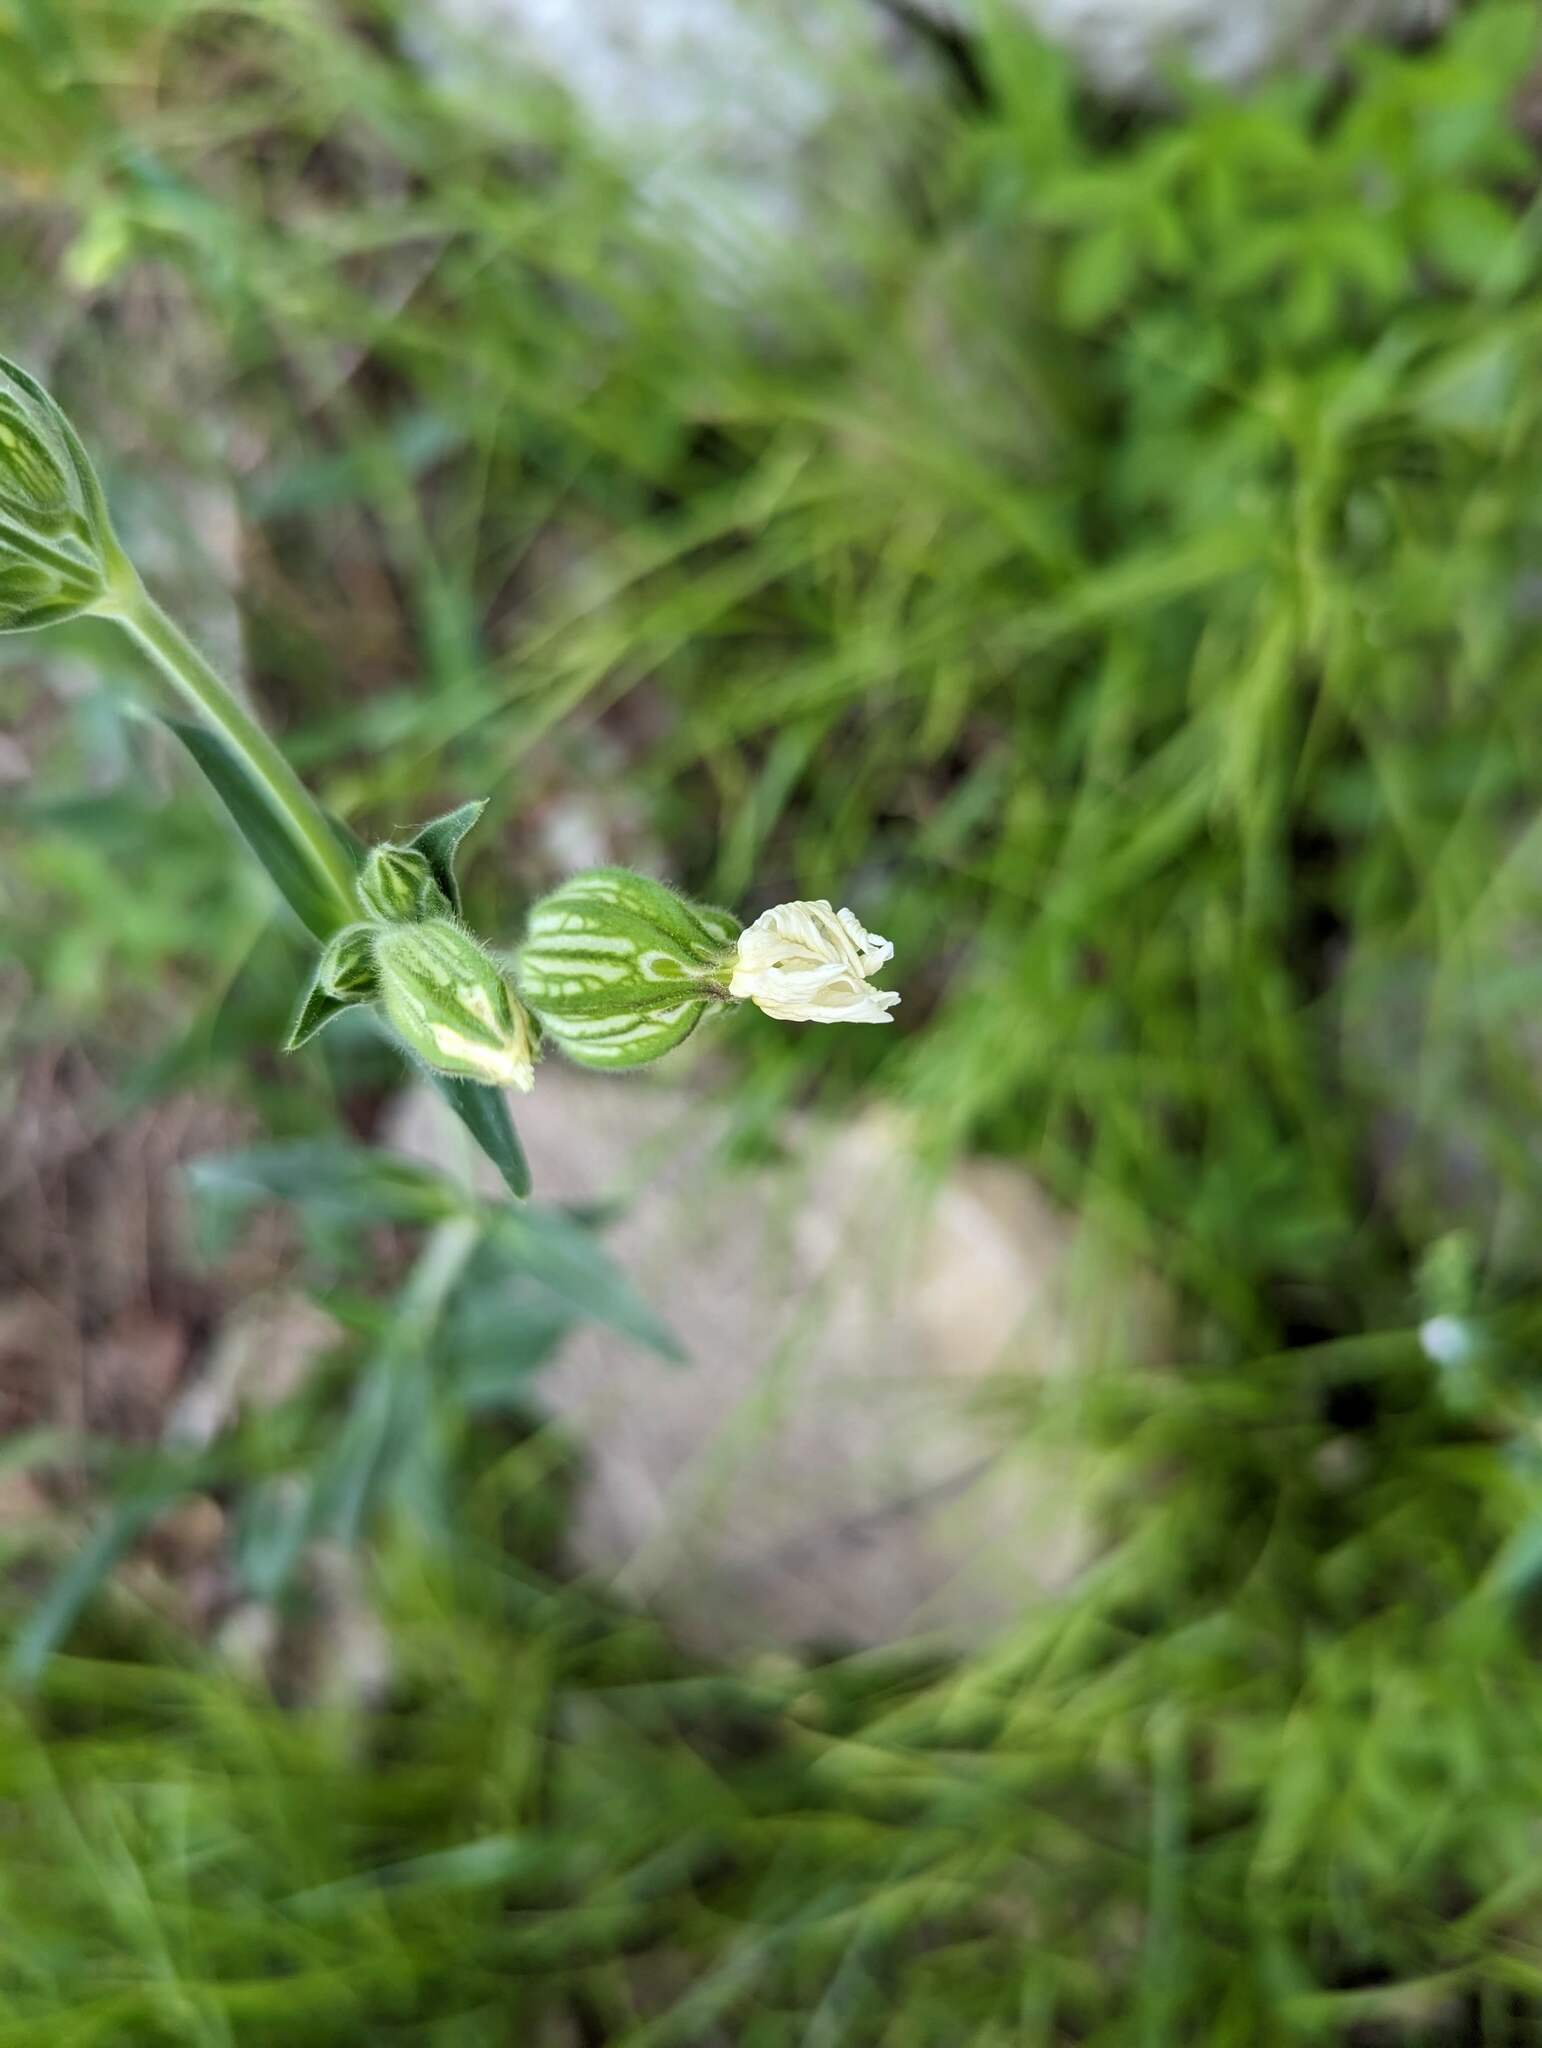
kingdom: Plantae
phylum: Tracheophyta
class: Magnoliopsida
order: Caryophyllales
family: Caryophyllaceae
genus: Silene
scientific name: Silene latifolia
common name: White campion
